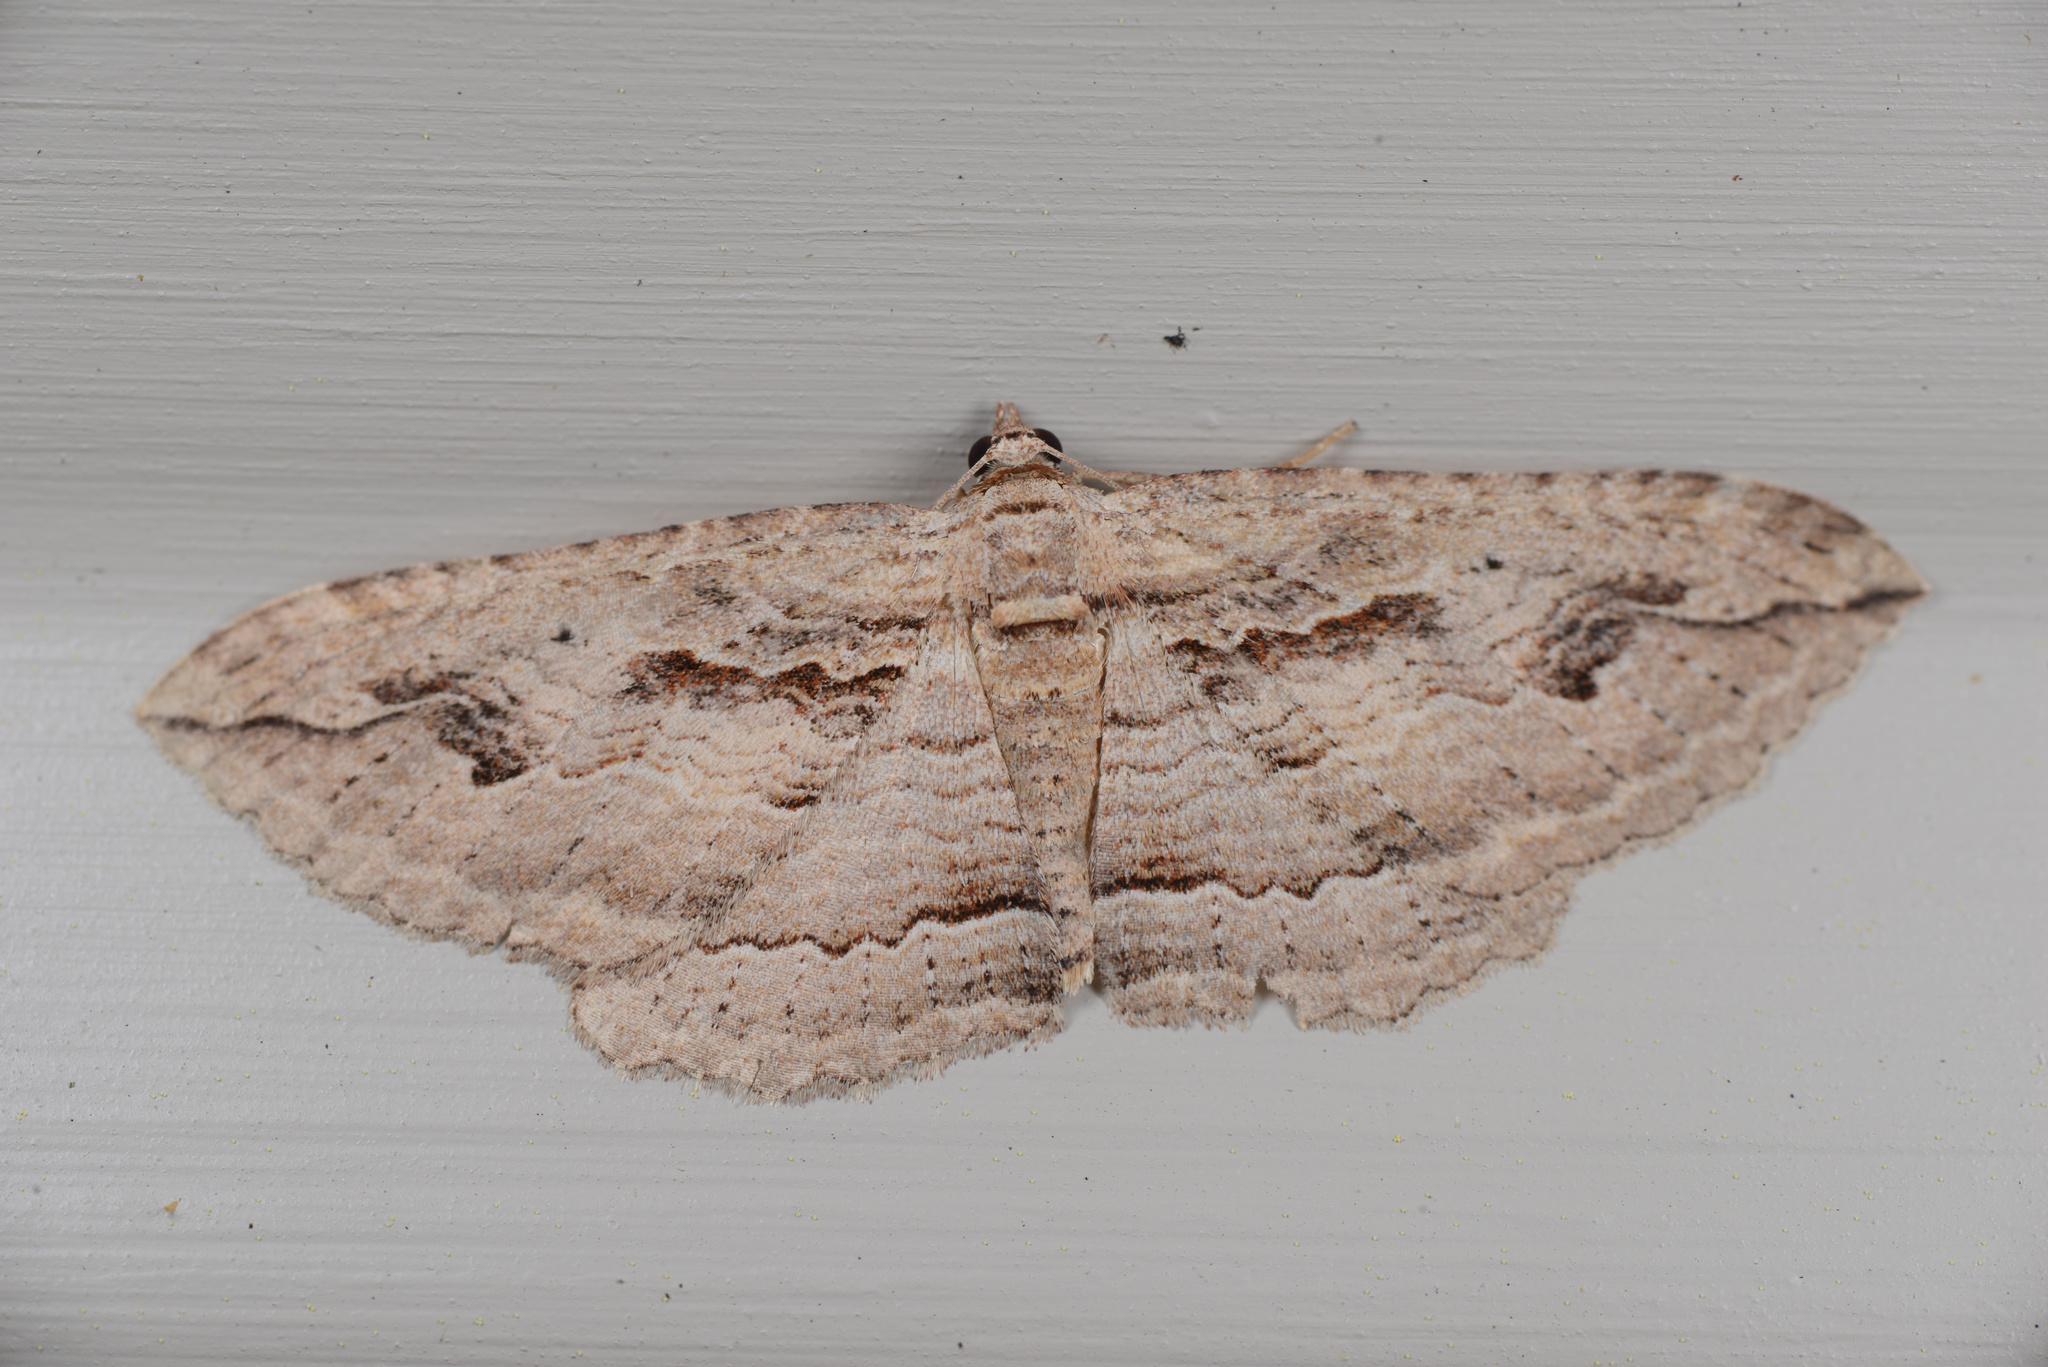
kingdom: Animalia
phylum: Arthropoda
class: Insecta
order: Lepidoptera
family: Geometridae
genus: Austrocidaria
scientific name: Austrocidaria gobiata
